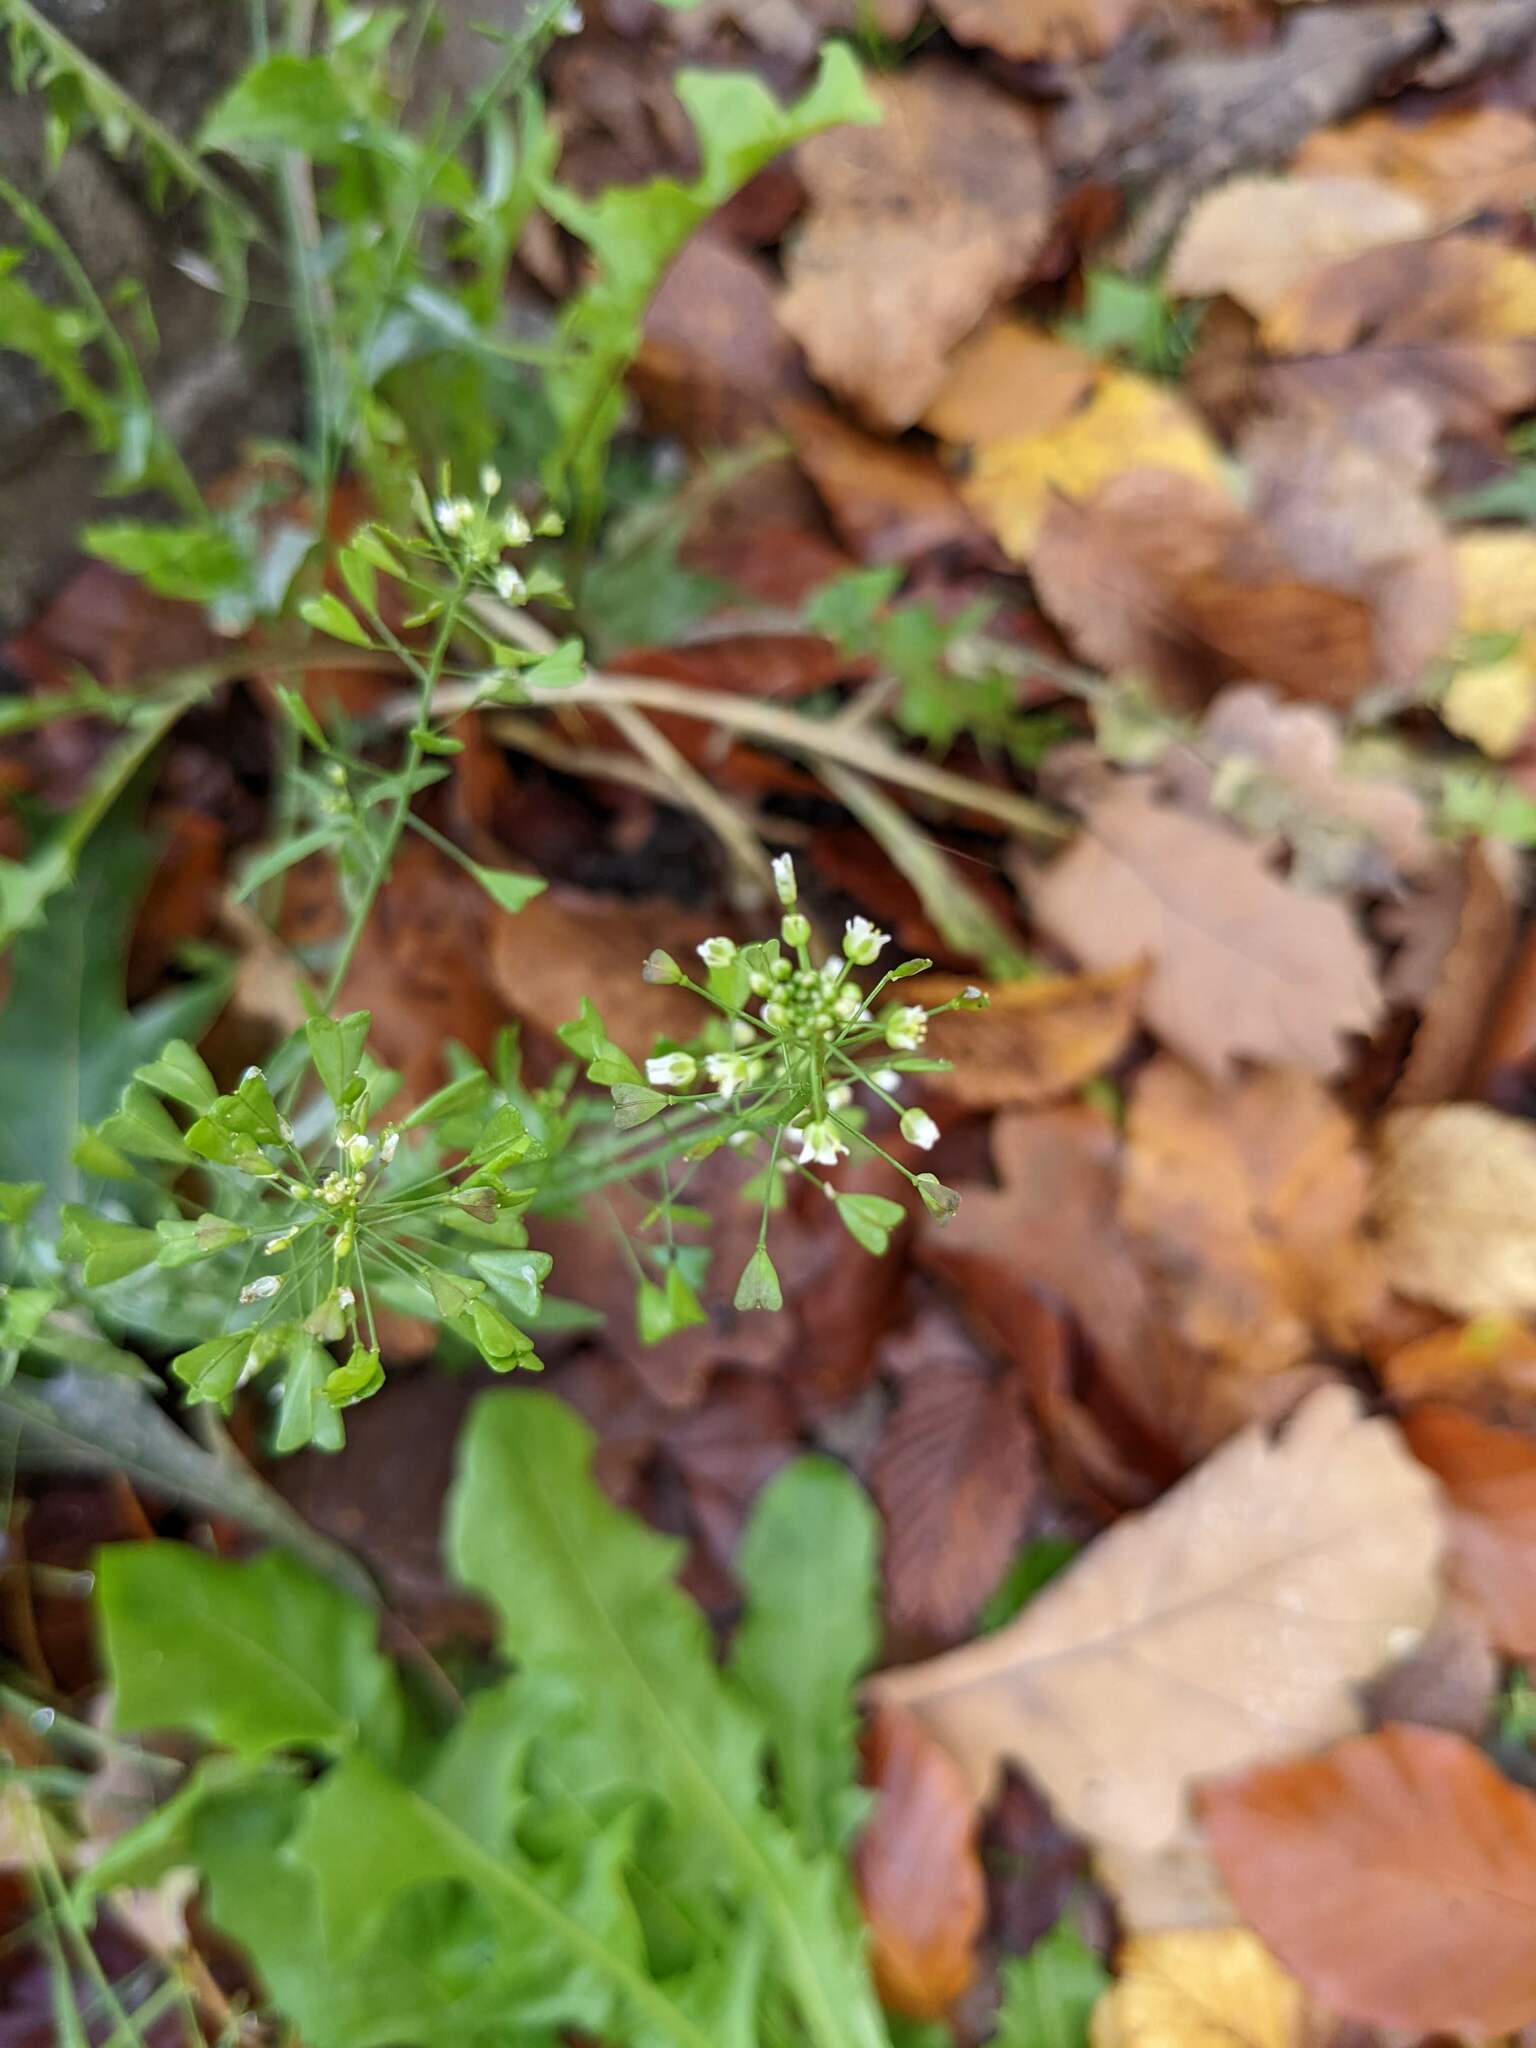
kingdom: Plantae
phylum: Tracheophyta
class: Magnoliopsida
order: Brassicales
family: Brassicaceae
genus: Capsella
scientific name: Capsella bursa-pastoris
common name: Shepherd's purse
